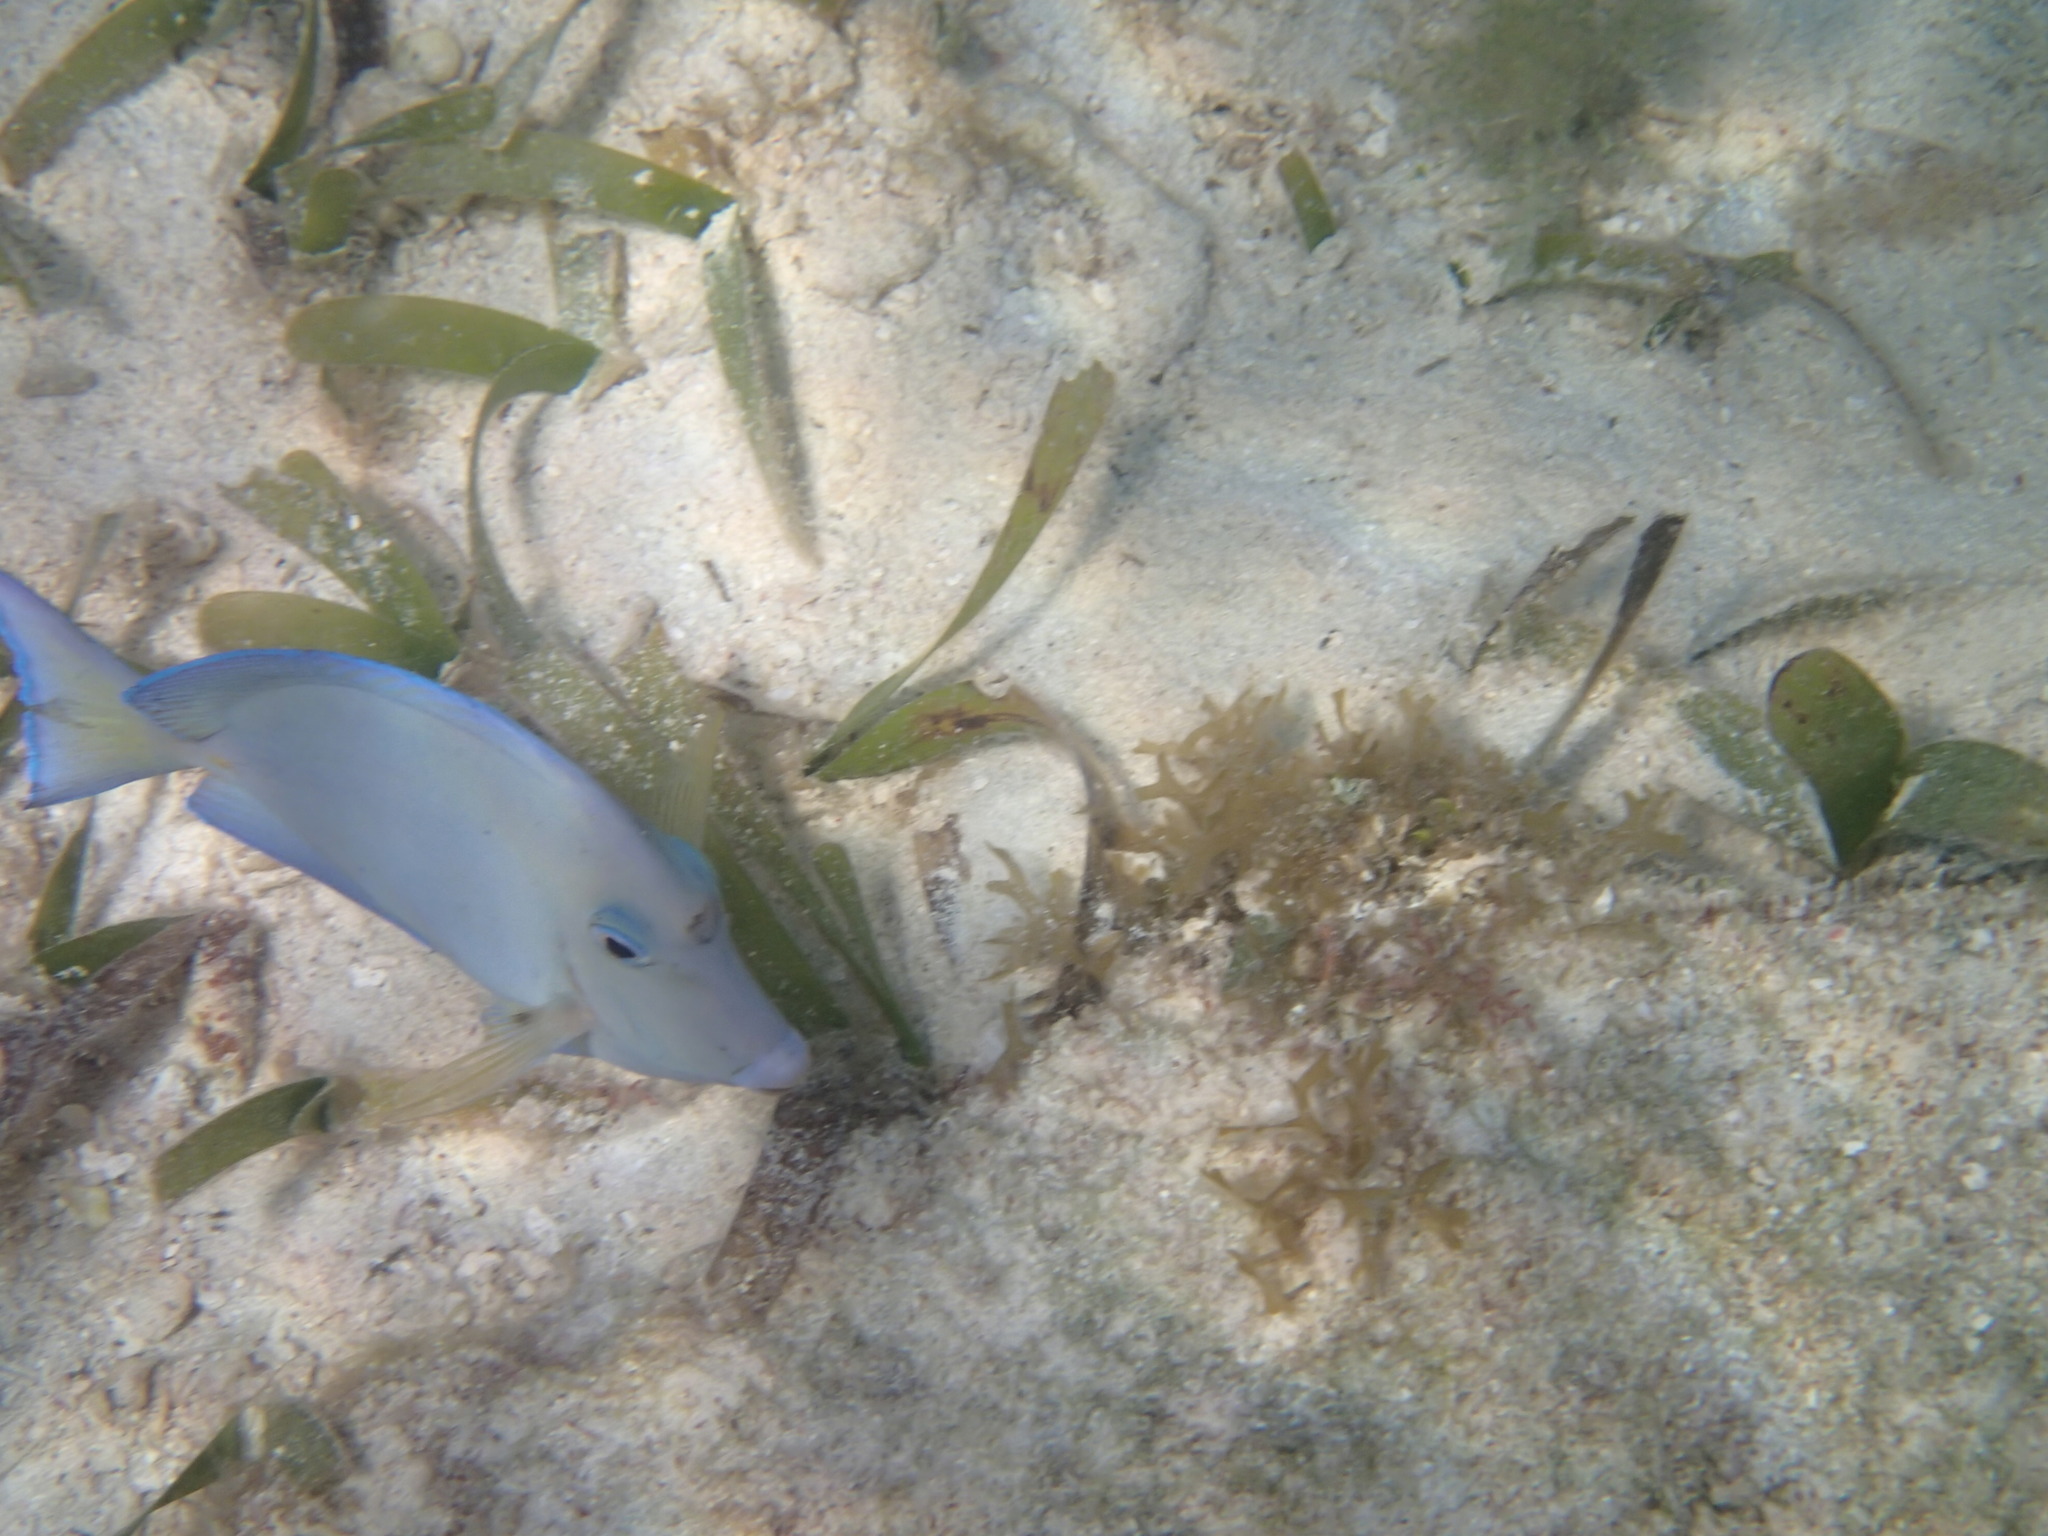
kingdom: Animalia
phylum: Chordata
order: Perciformes
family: Acanthuridae
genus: Acanthurus
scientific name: Acanthurus coeruleus
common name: Blue tang
